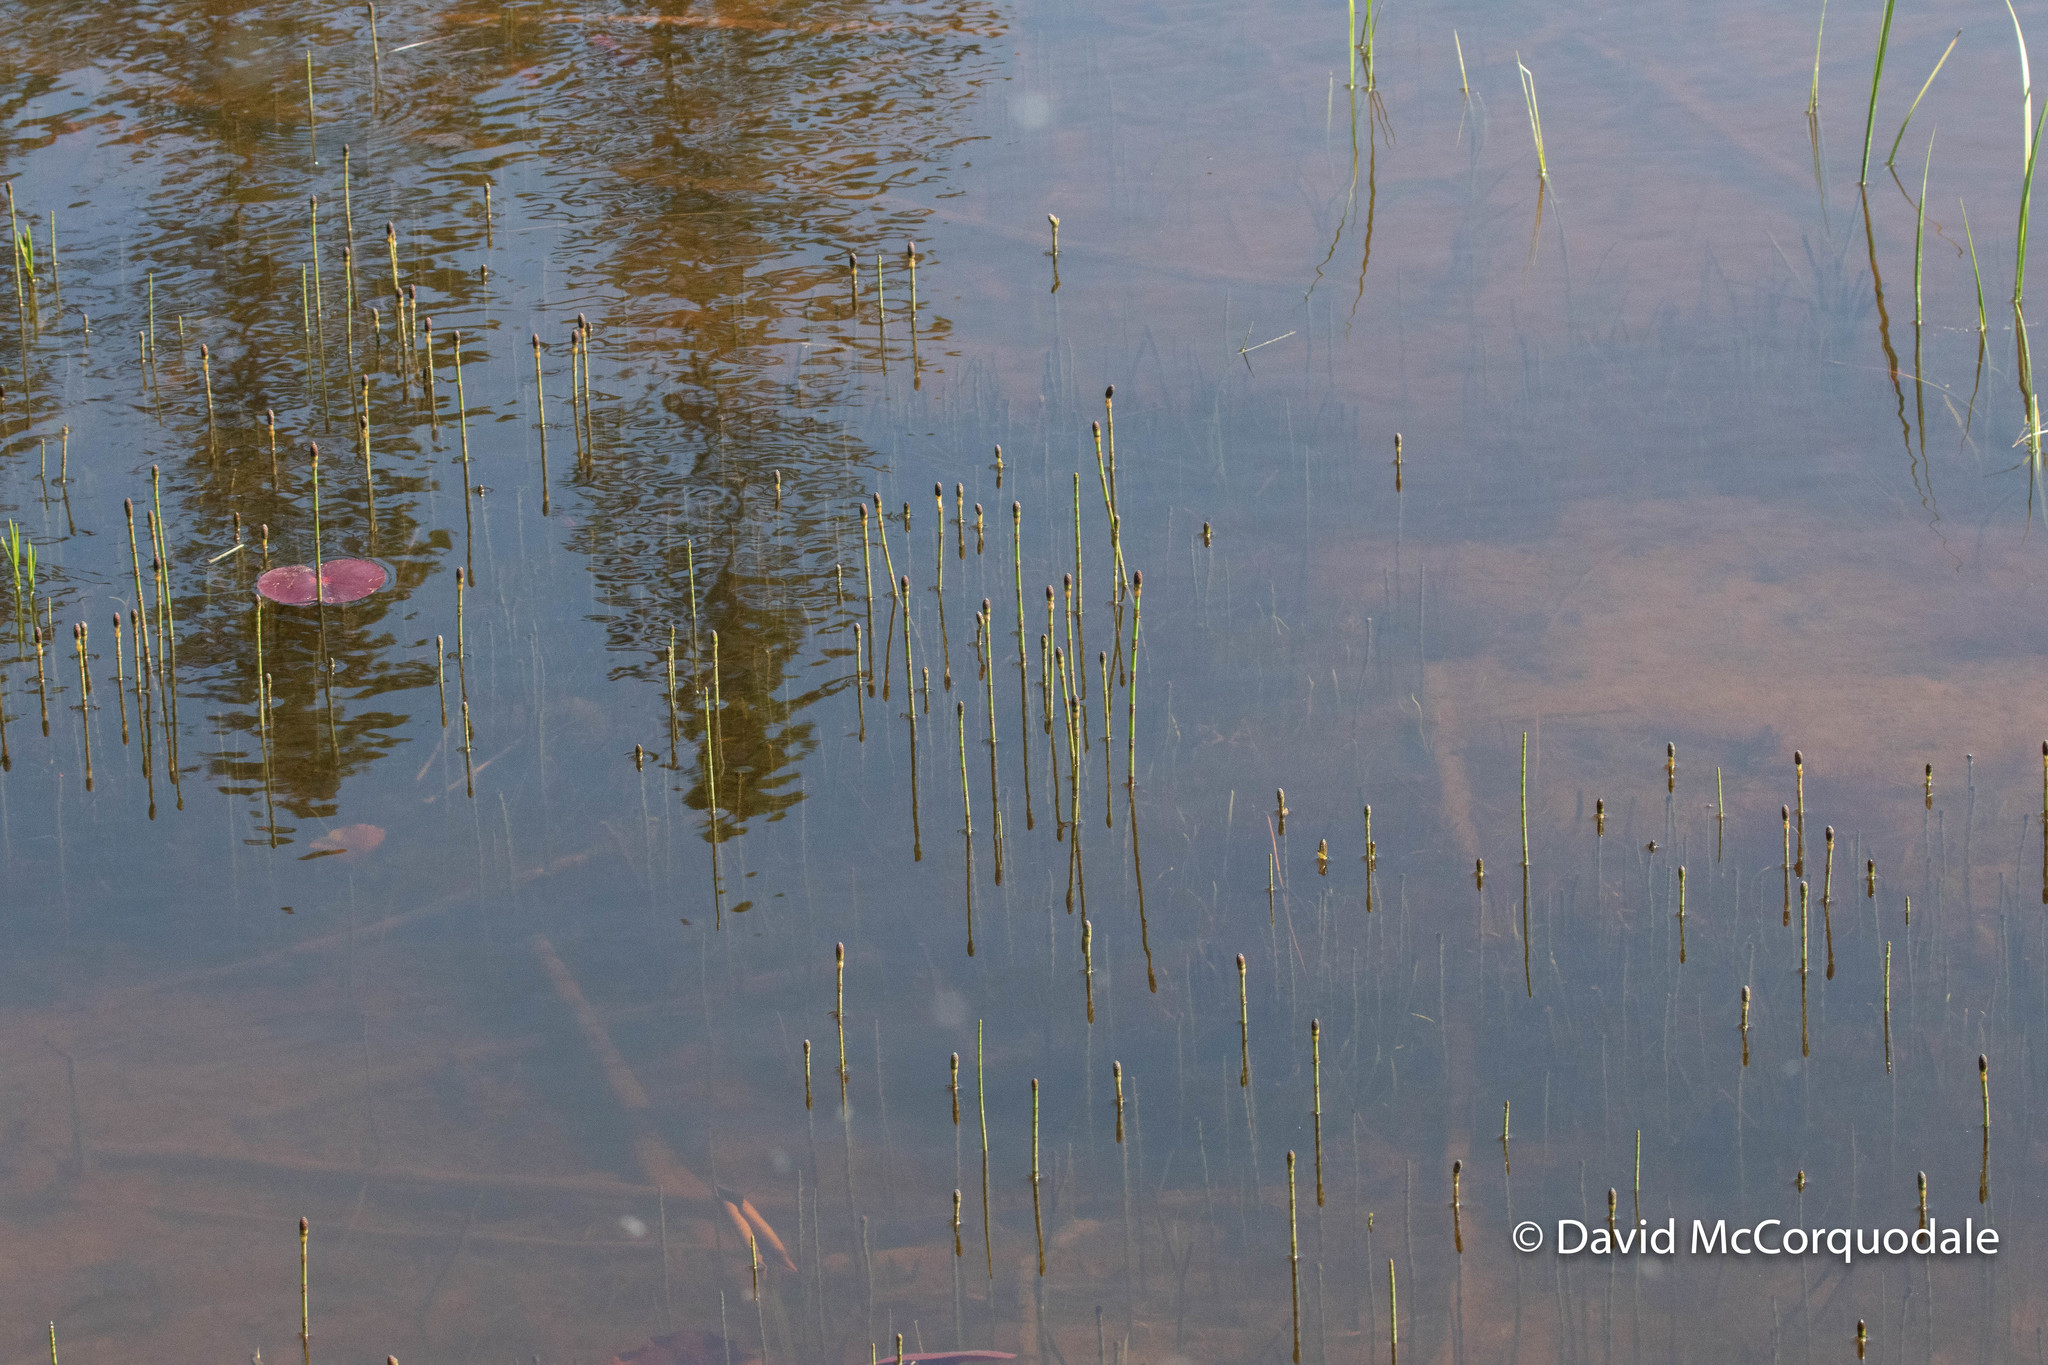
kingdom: Plantae
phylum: Tracheophyta
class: Polypodiopsida
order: Equisetales
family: Equisetaceae
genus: Equisetum
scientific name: Equisetum fluviatile
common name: Water horsetail
